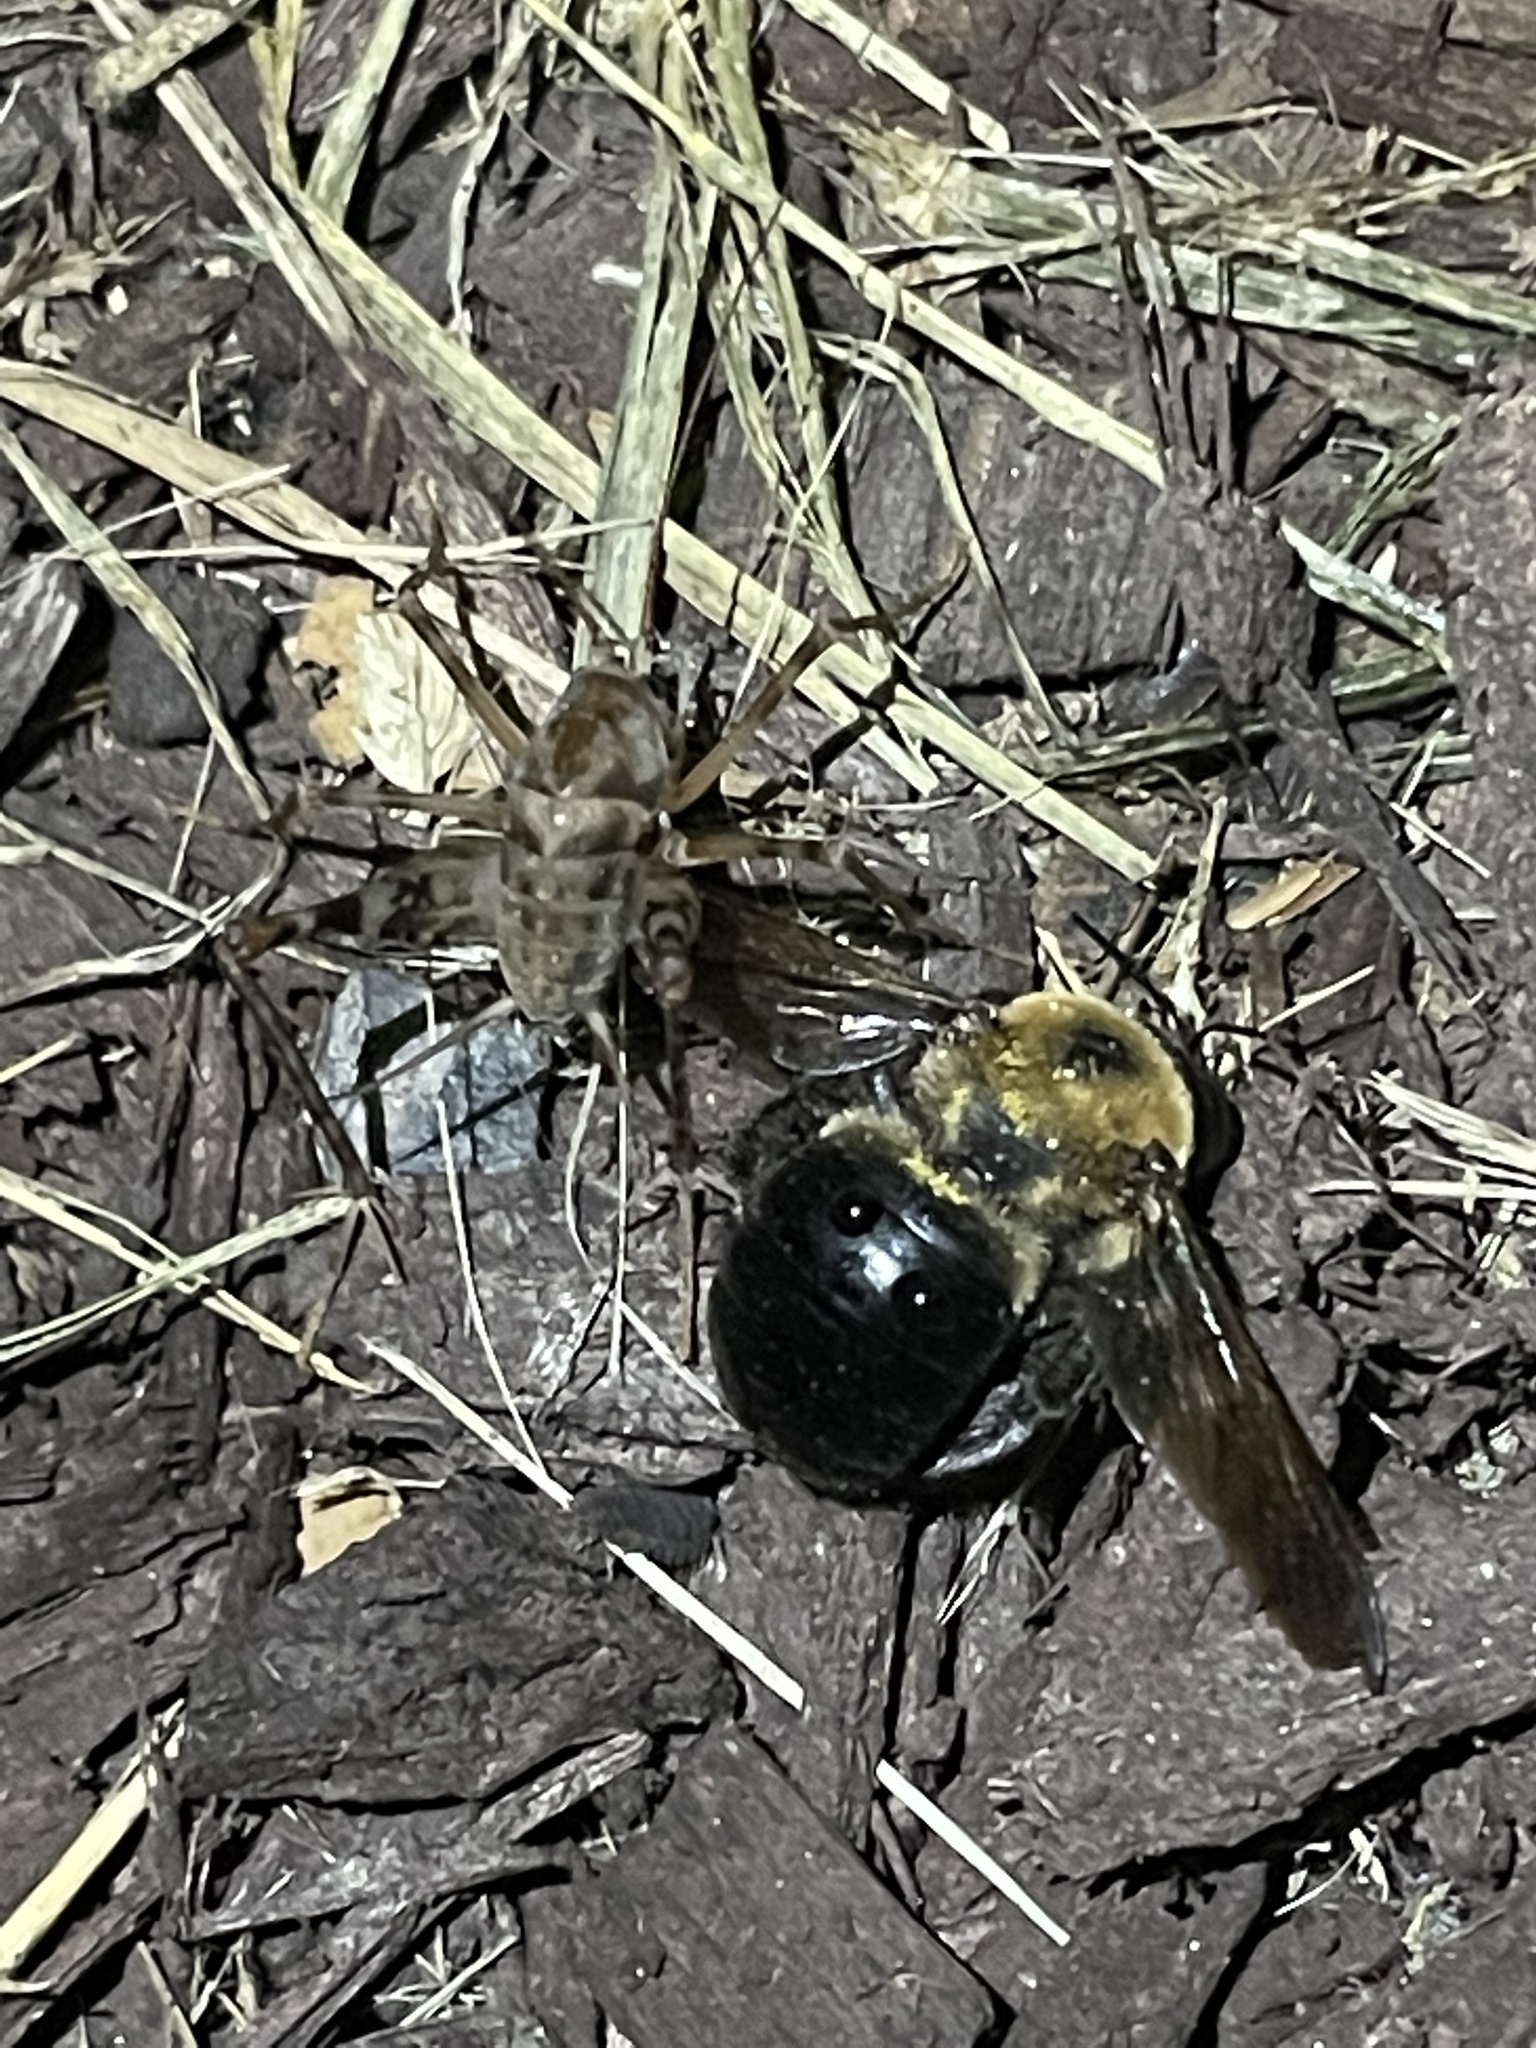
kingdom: Animalia
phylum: Arthropoda
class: Insecta
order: Orthoptera
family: Rhaphidophoridae
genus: Tachycines
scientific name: Tachycines asynamorus
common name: Greenhouse camel cricket
